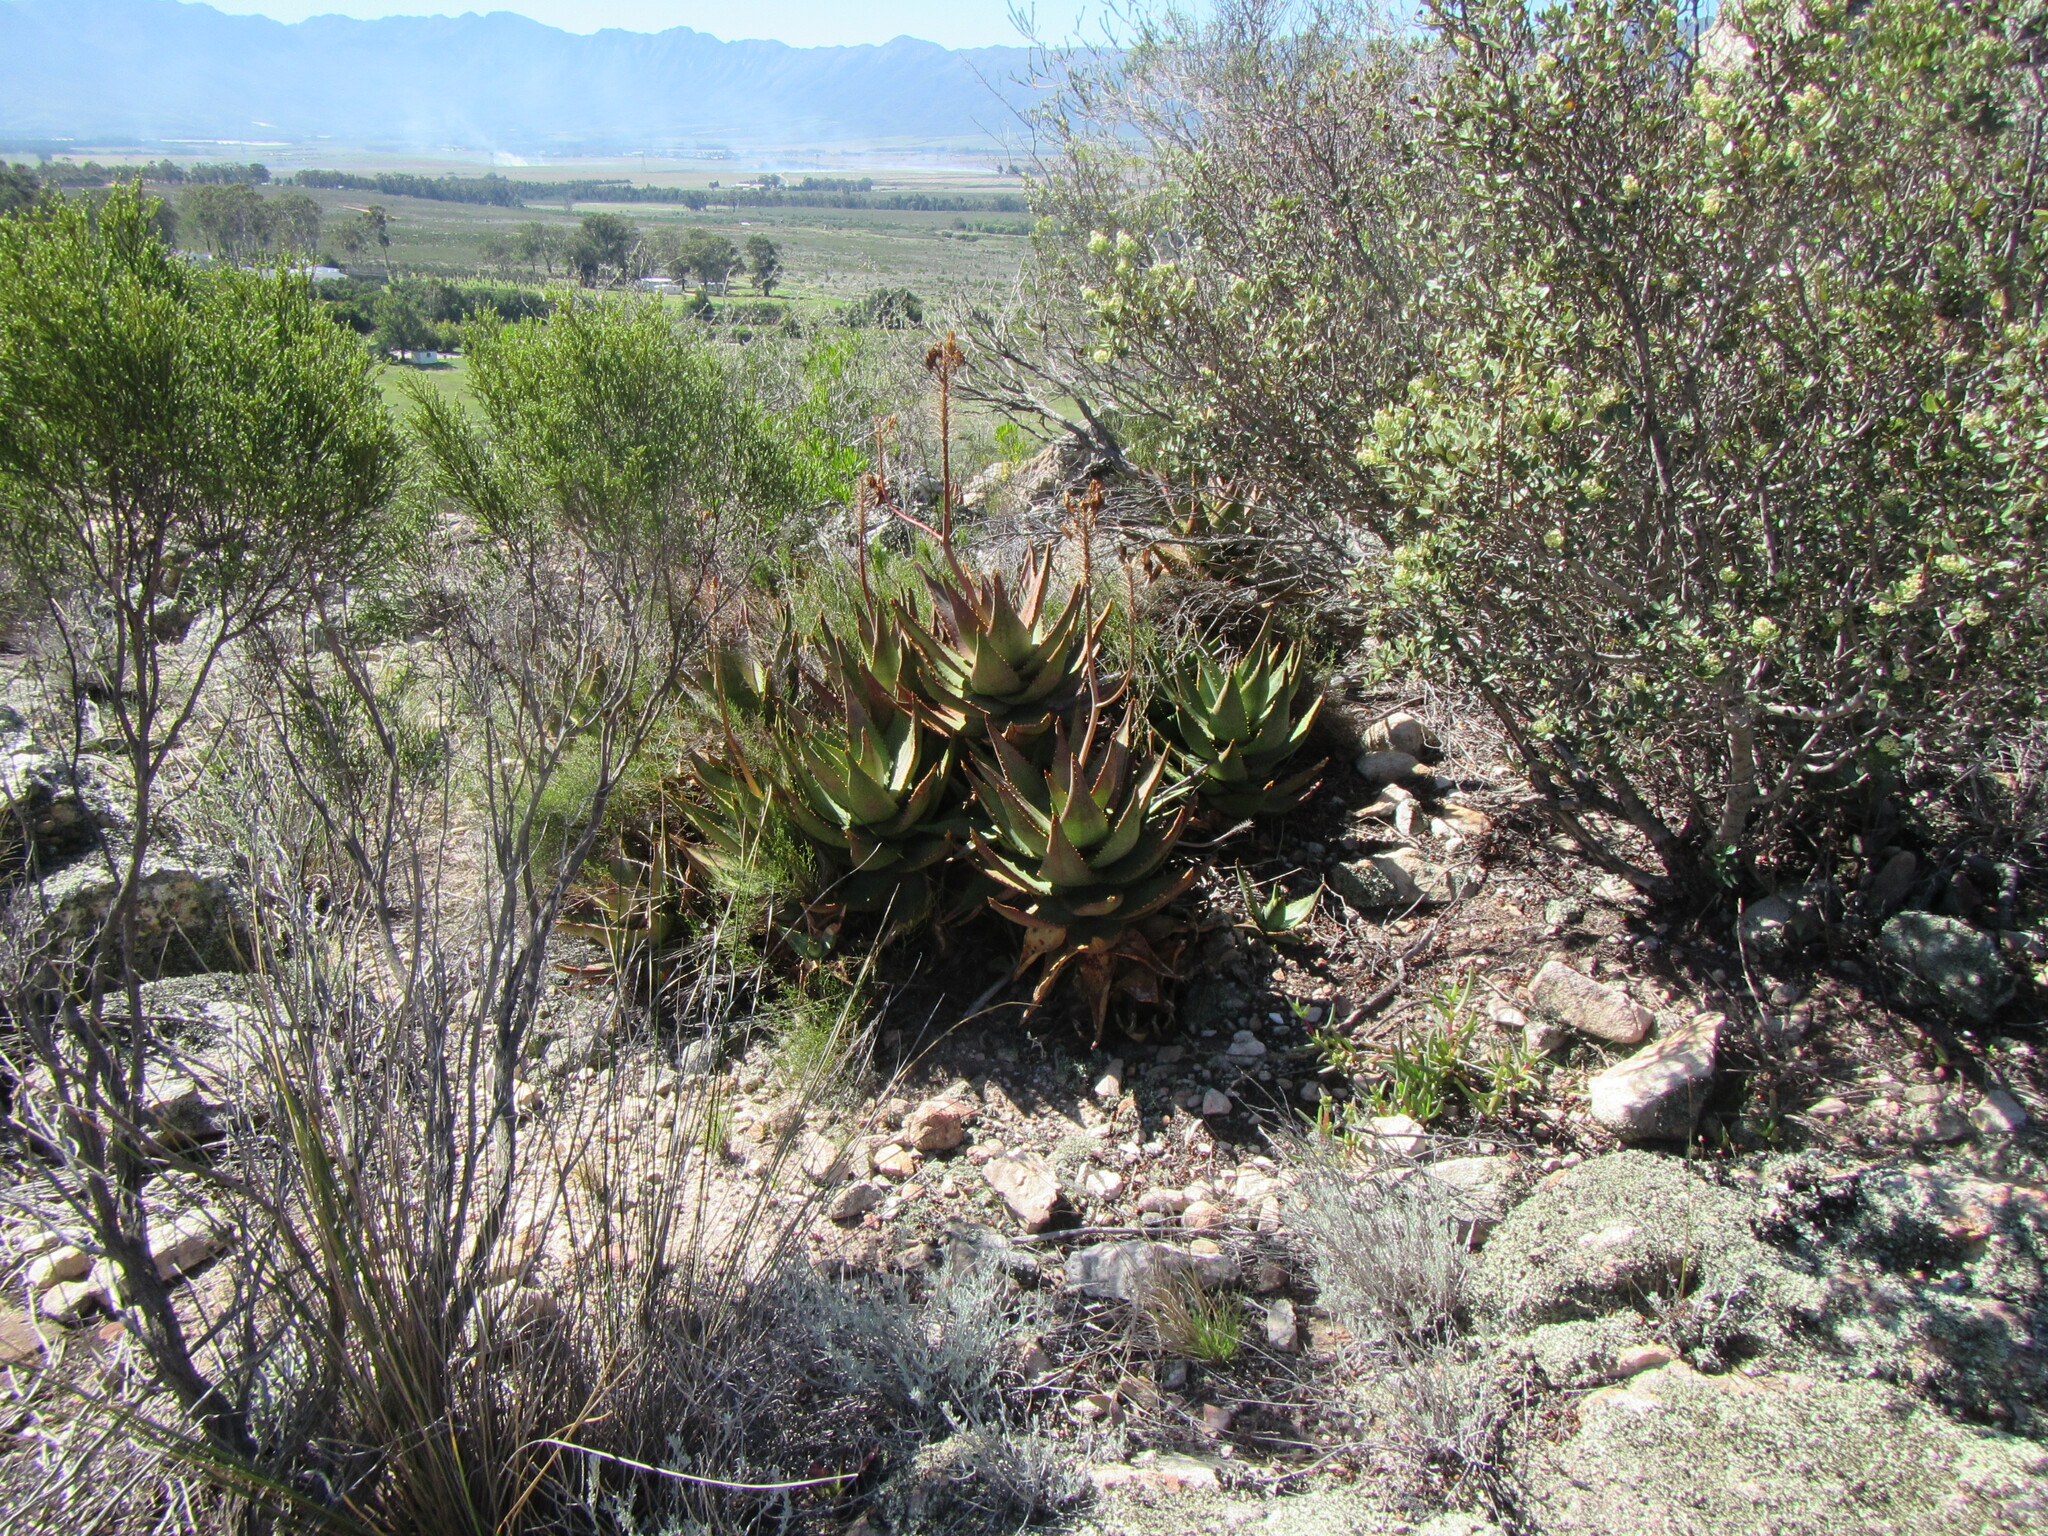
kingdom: Plantae
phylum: Tracheophyta
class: Liliopsida
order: Asparagales
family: Asphodelaceae
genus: Aloe
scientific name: Aloe perfoliata
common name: Mitra aloe
